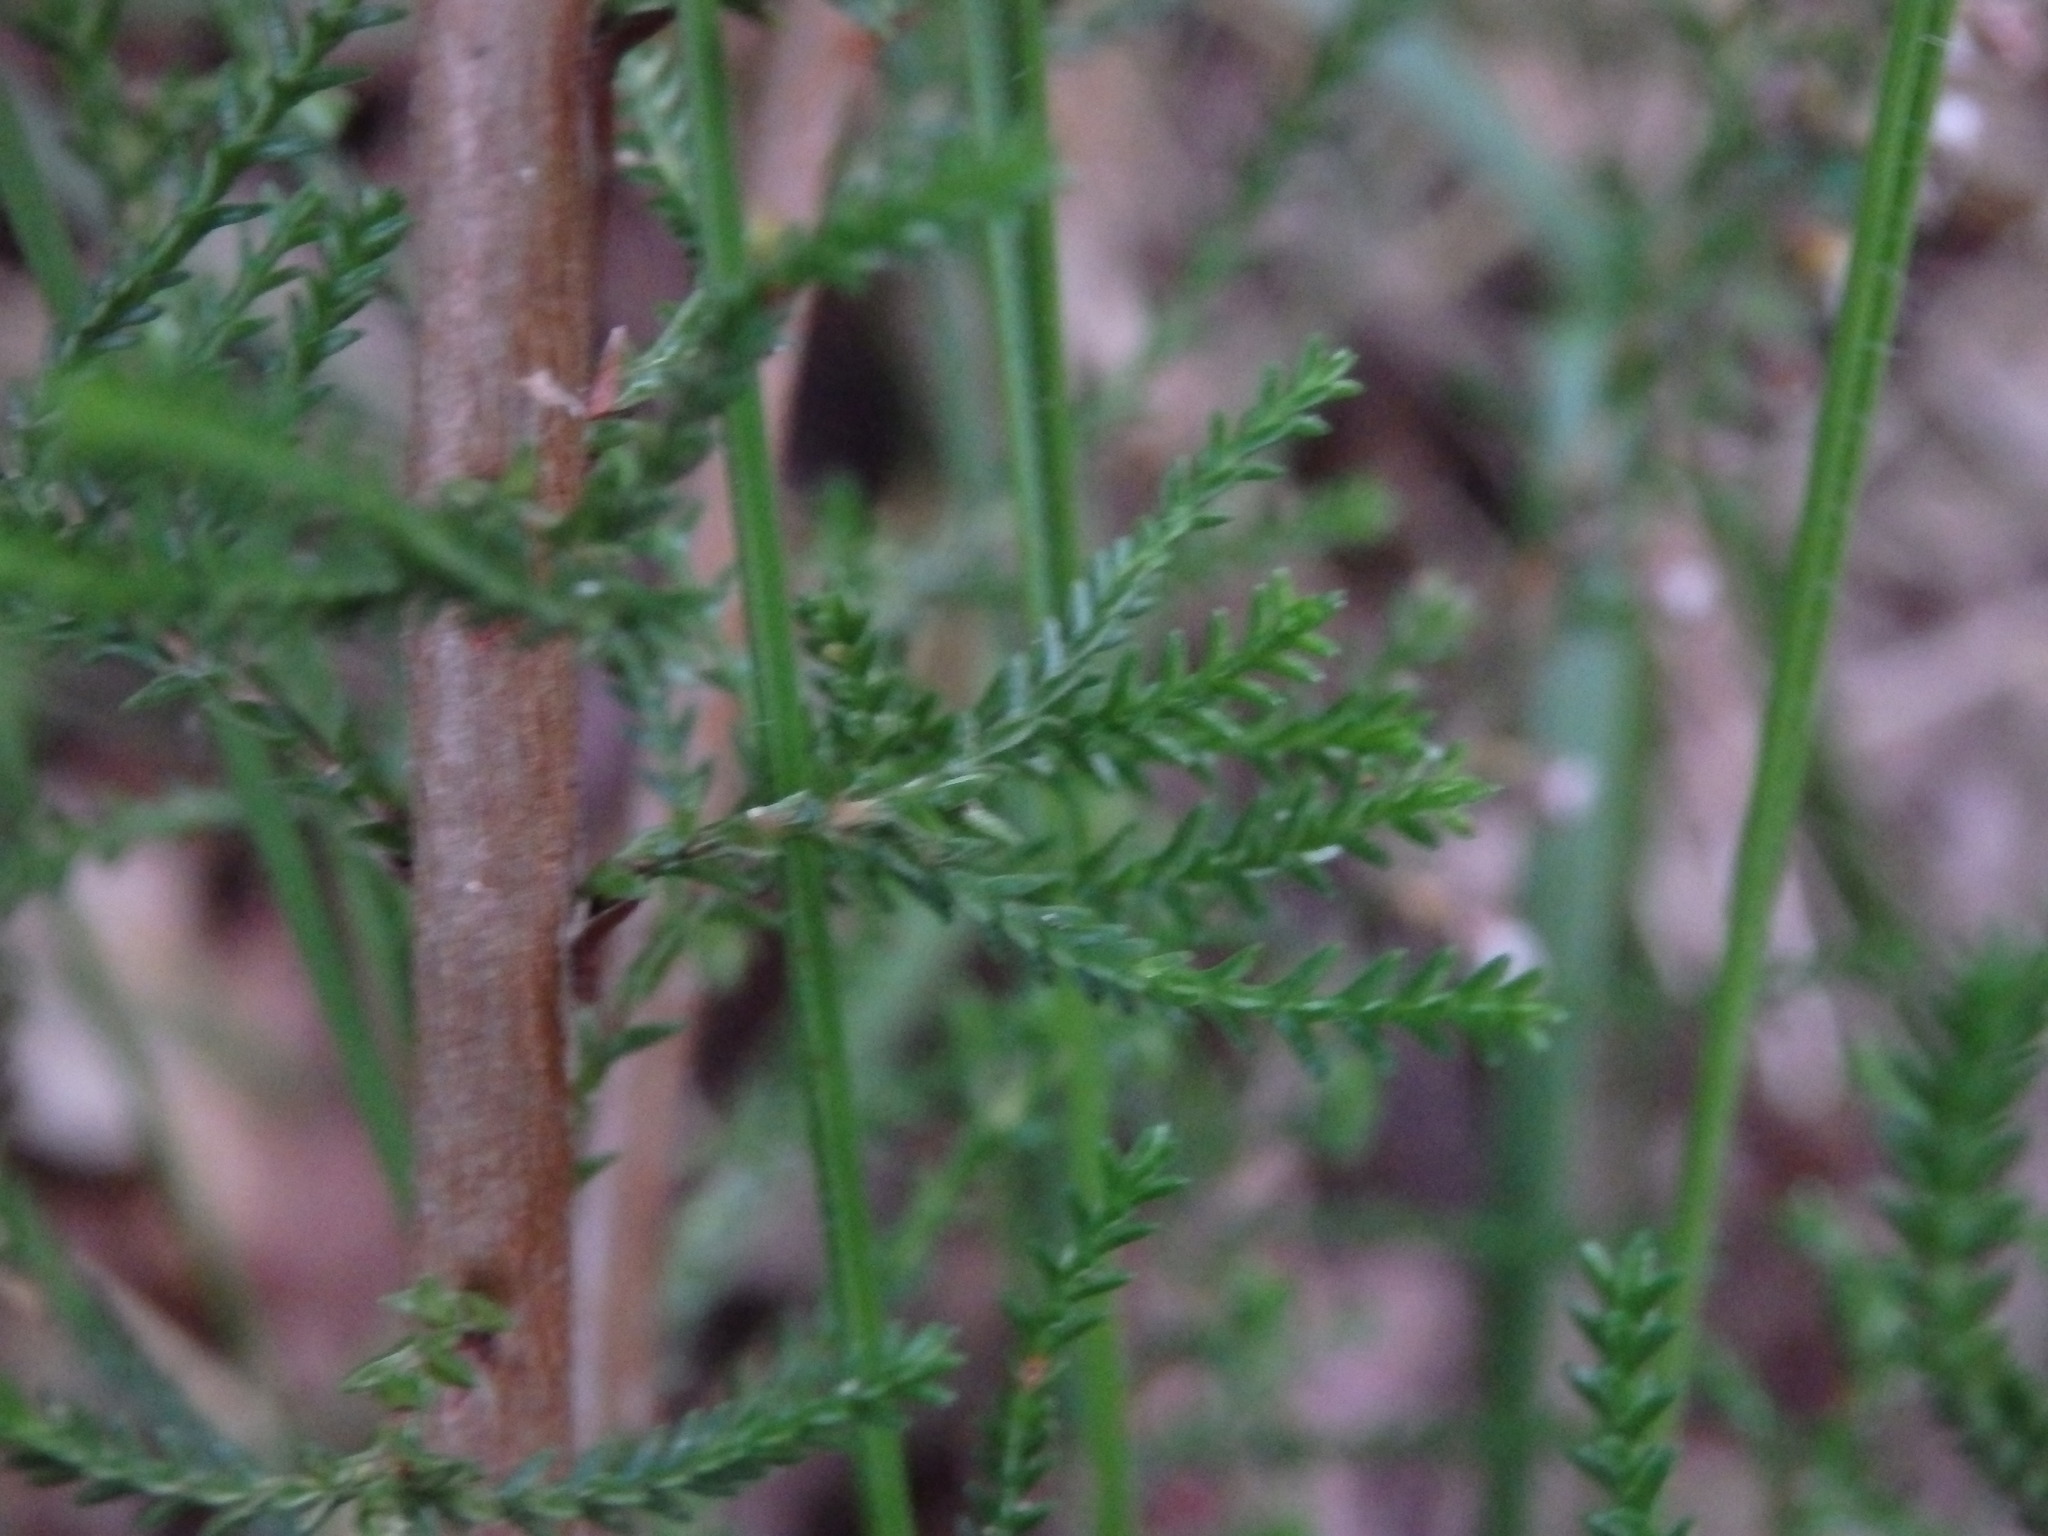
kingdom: Plantae
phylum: Tracheophyta
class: Magnoliopsida
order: Ericales
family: Ericaceae
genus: Calluna
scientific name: Calluna vulgaris
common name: Heather
